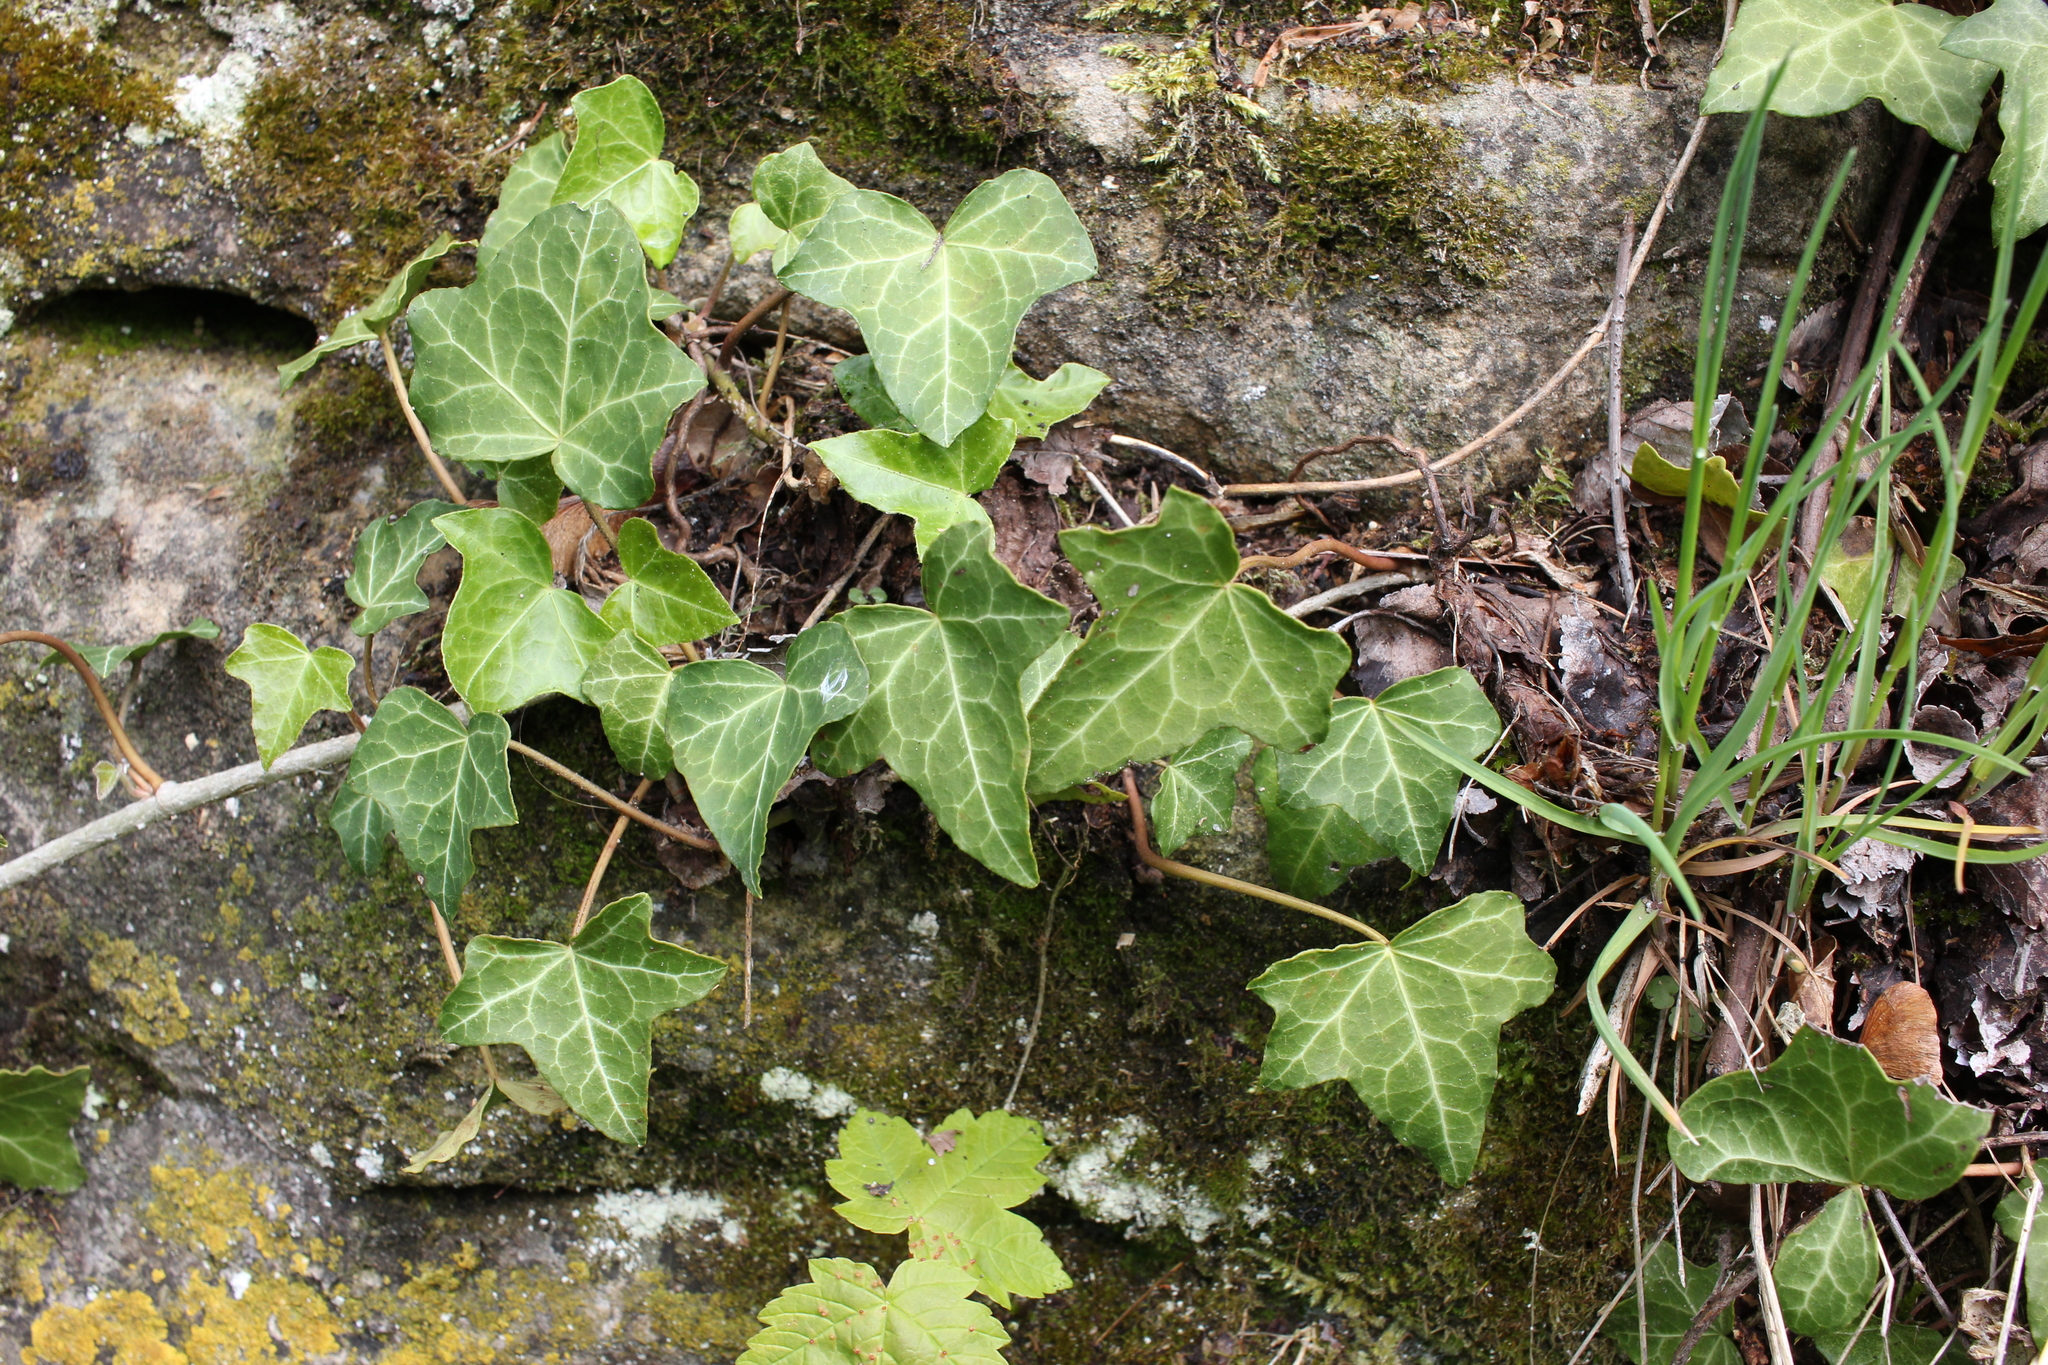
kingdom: Plantae
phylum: Tracheophyta
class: Magnoliopsida
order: Apiales
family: Araliaceae
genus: Hedera
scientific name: Hedera helix
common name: Ivy
